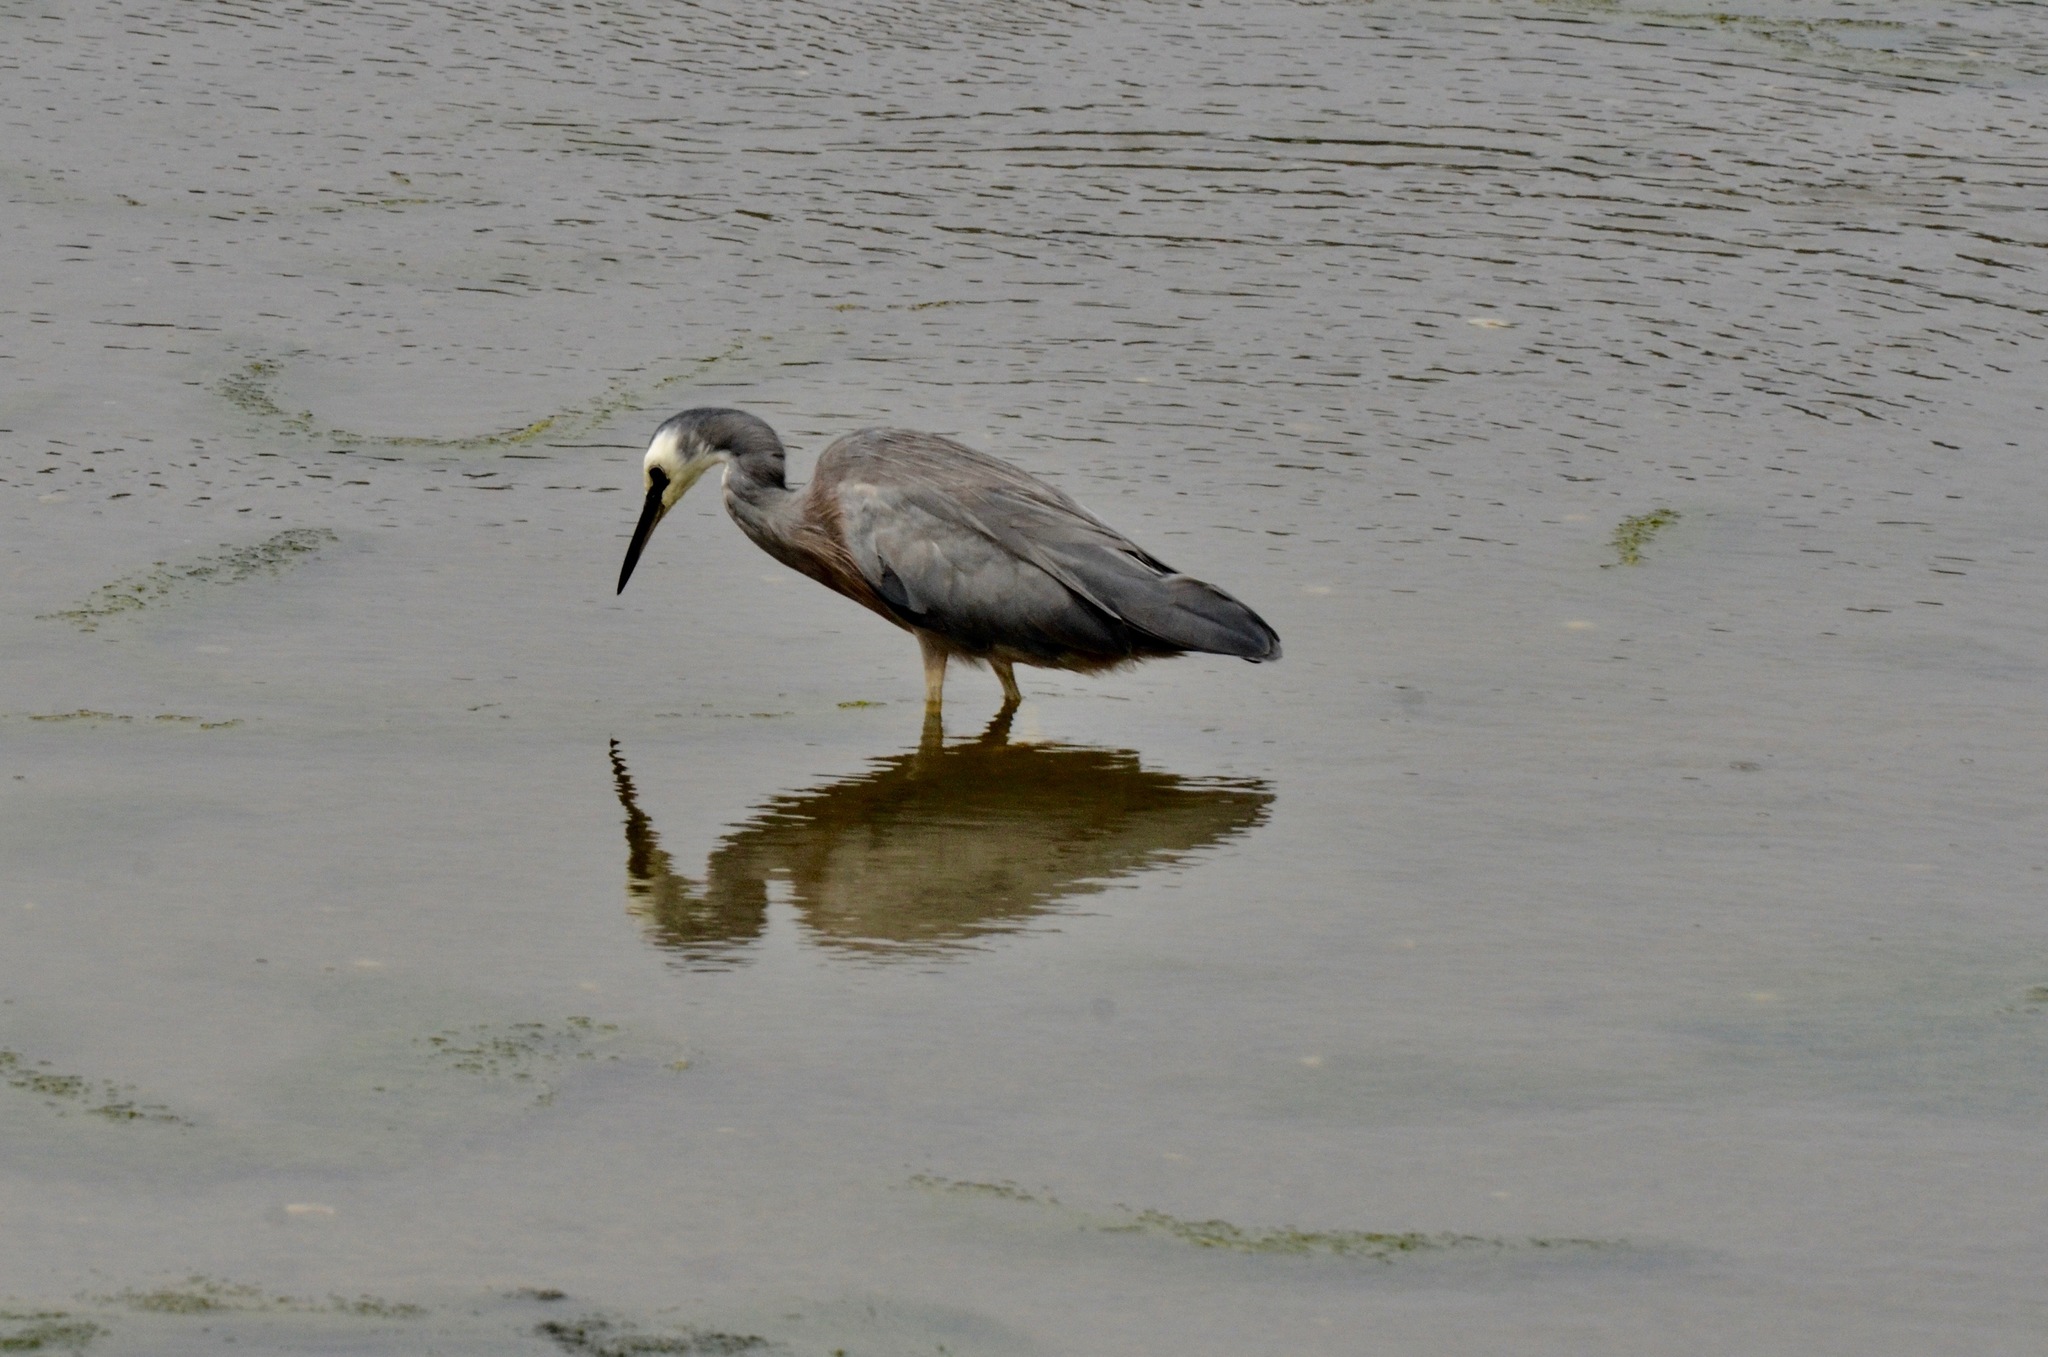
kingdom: Animalia
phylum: Chordata
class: Aves
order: Pelecaniformes
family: Ardeidae
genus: Egretta
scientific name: Egretta novaehollandiae
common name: White-faced heron
